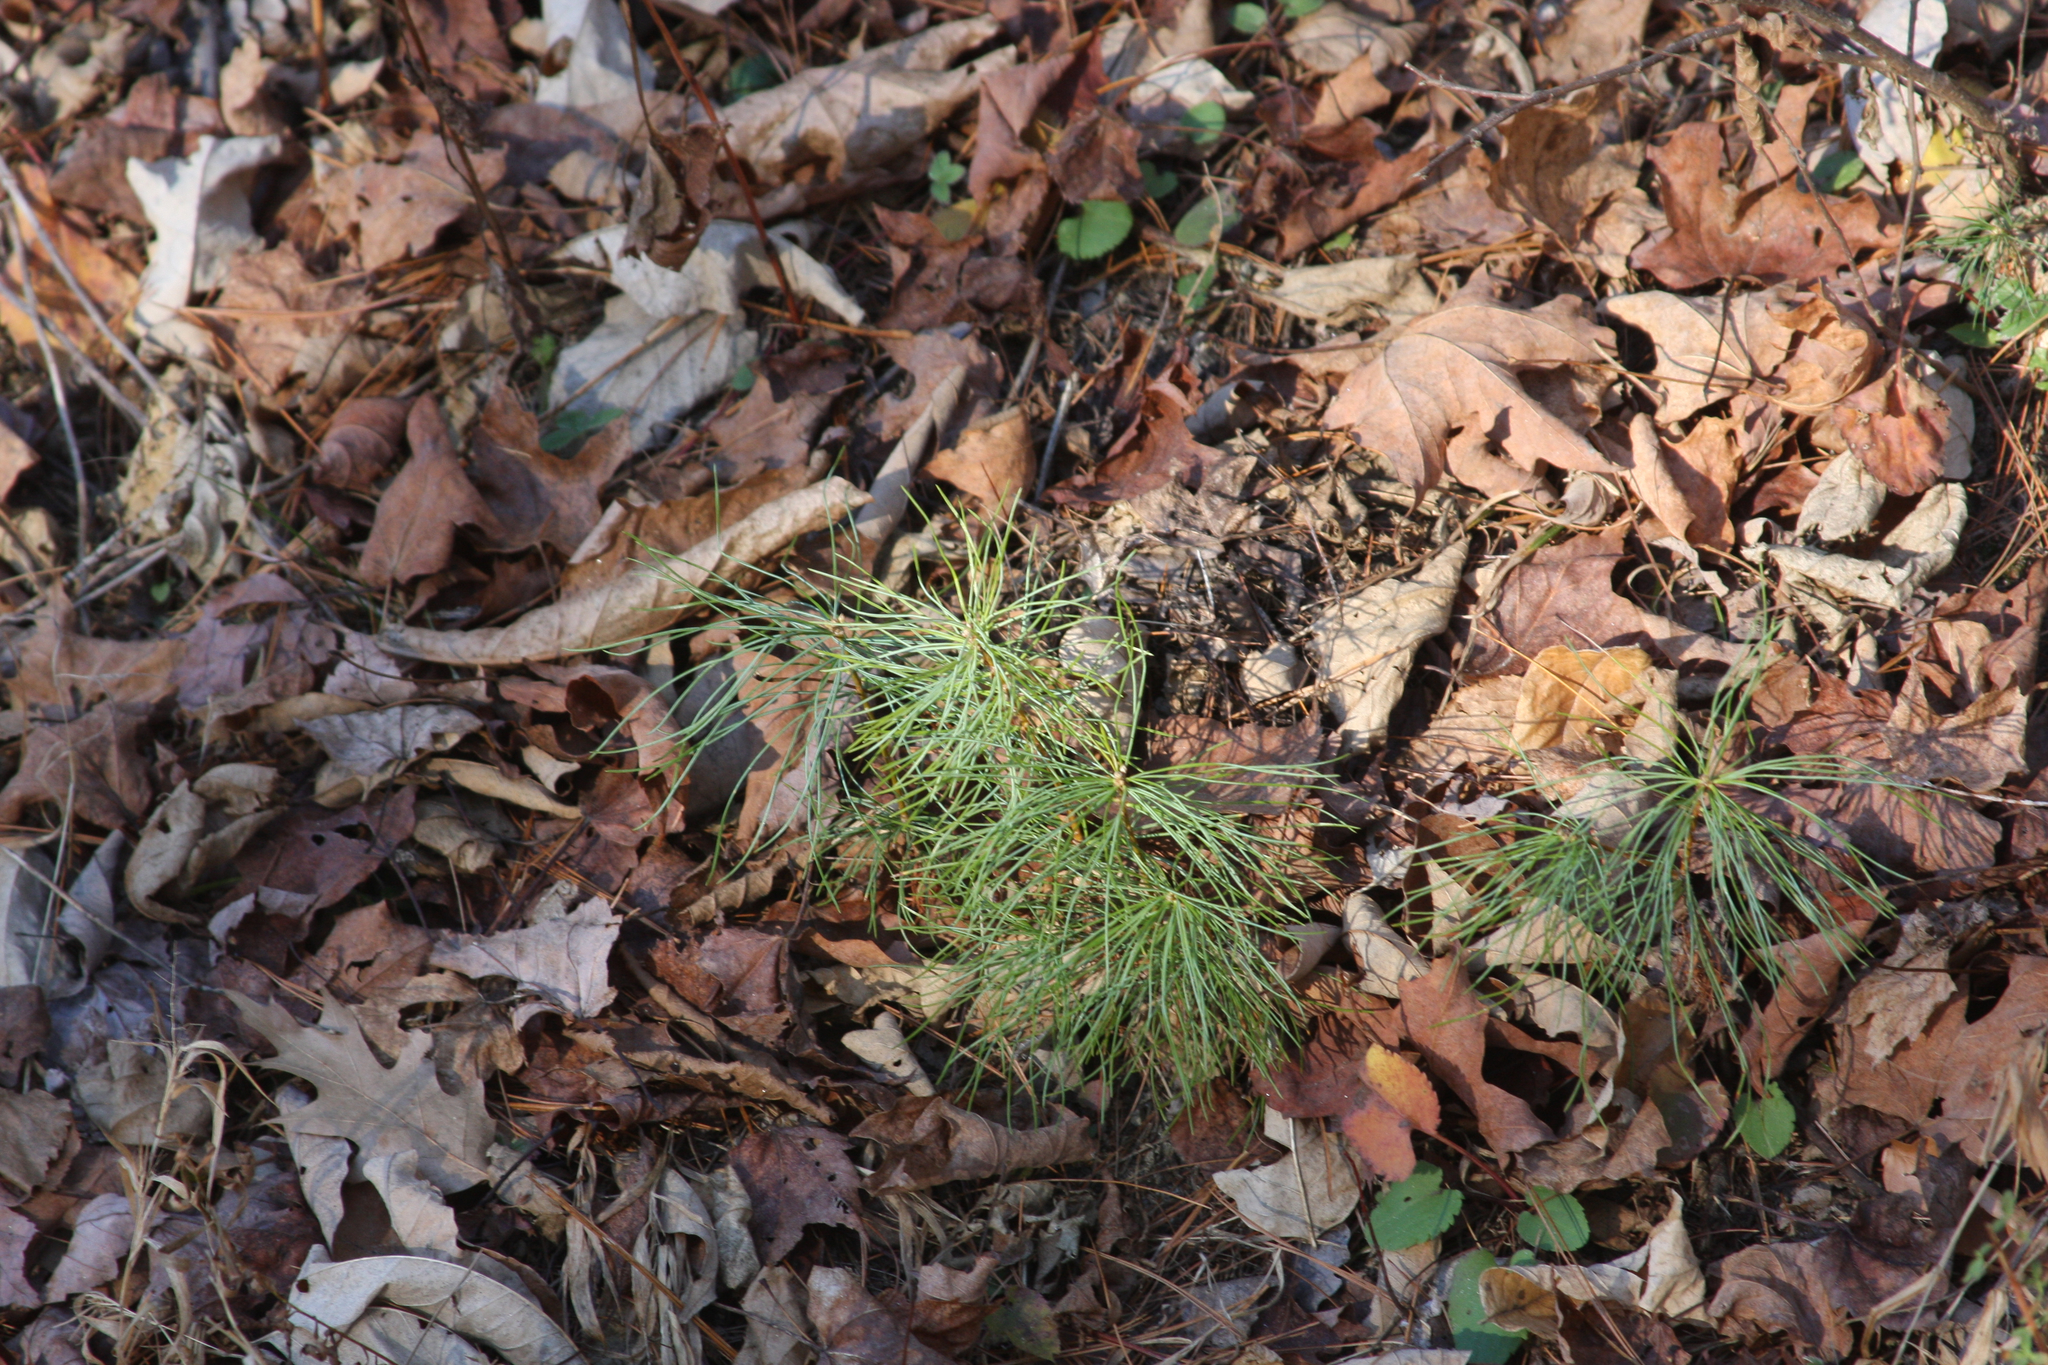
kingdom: Plantae
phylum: Tracheophyta
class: Pinopsida
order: Pinales
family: Pinaceae
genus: Pinus
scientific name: Pinus strobus
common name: Weymouth pine
